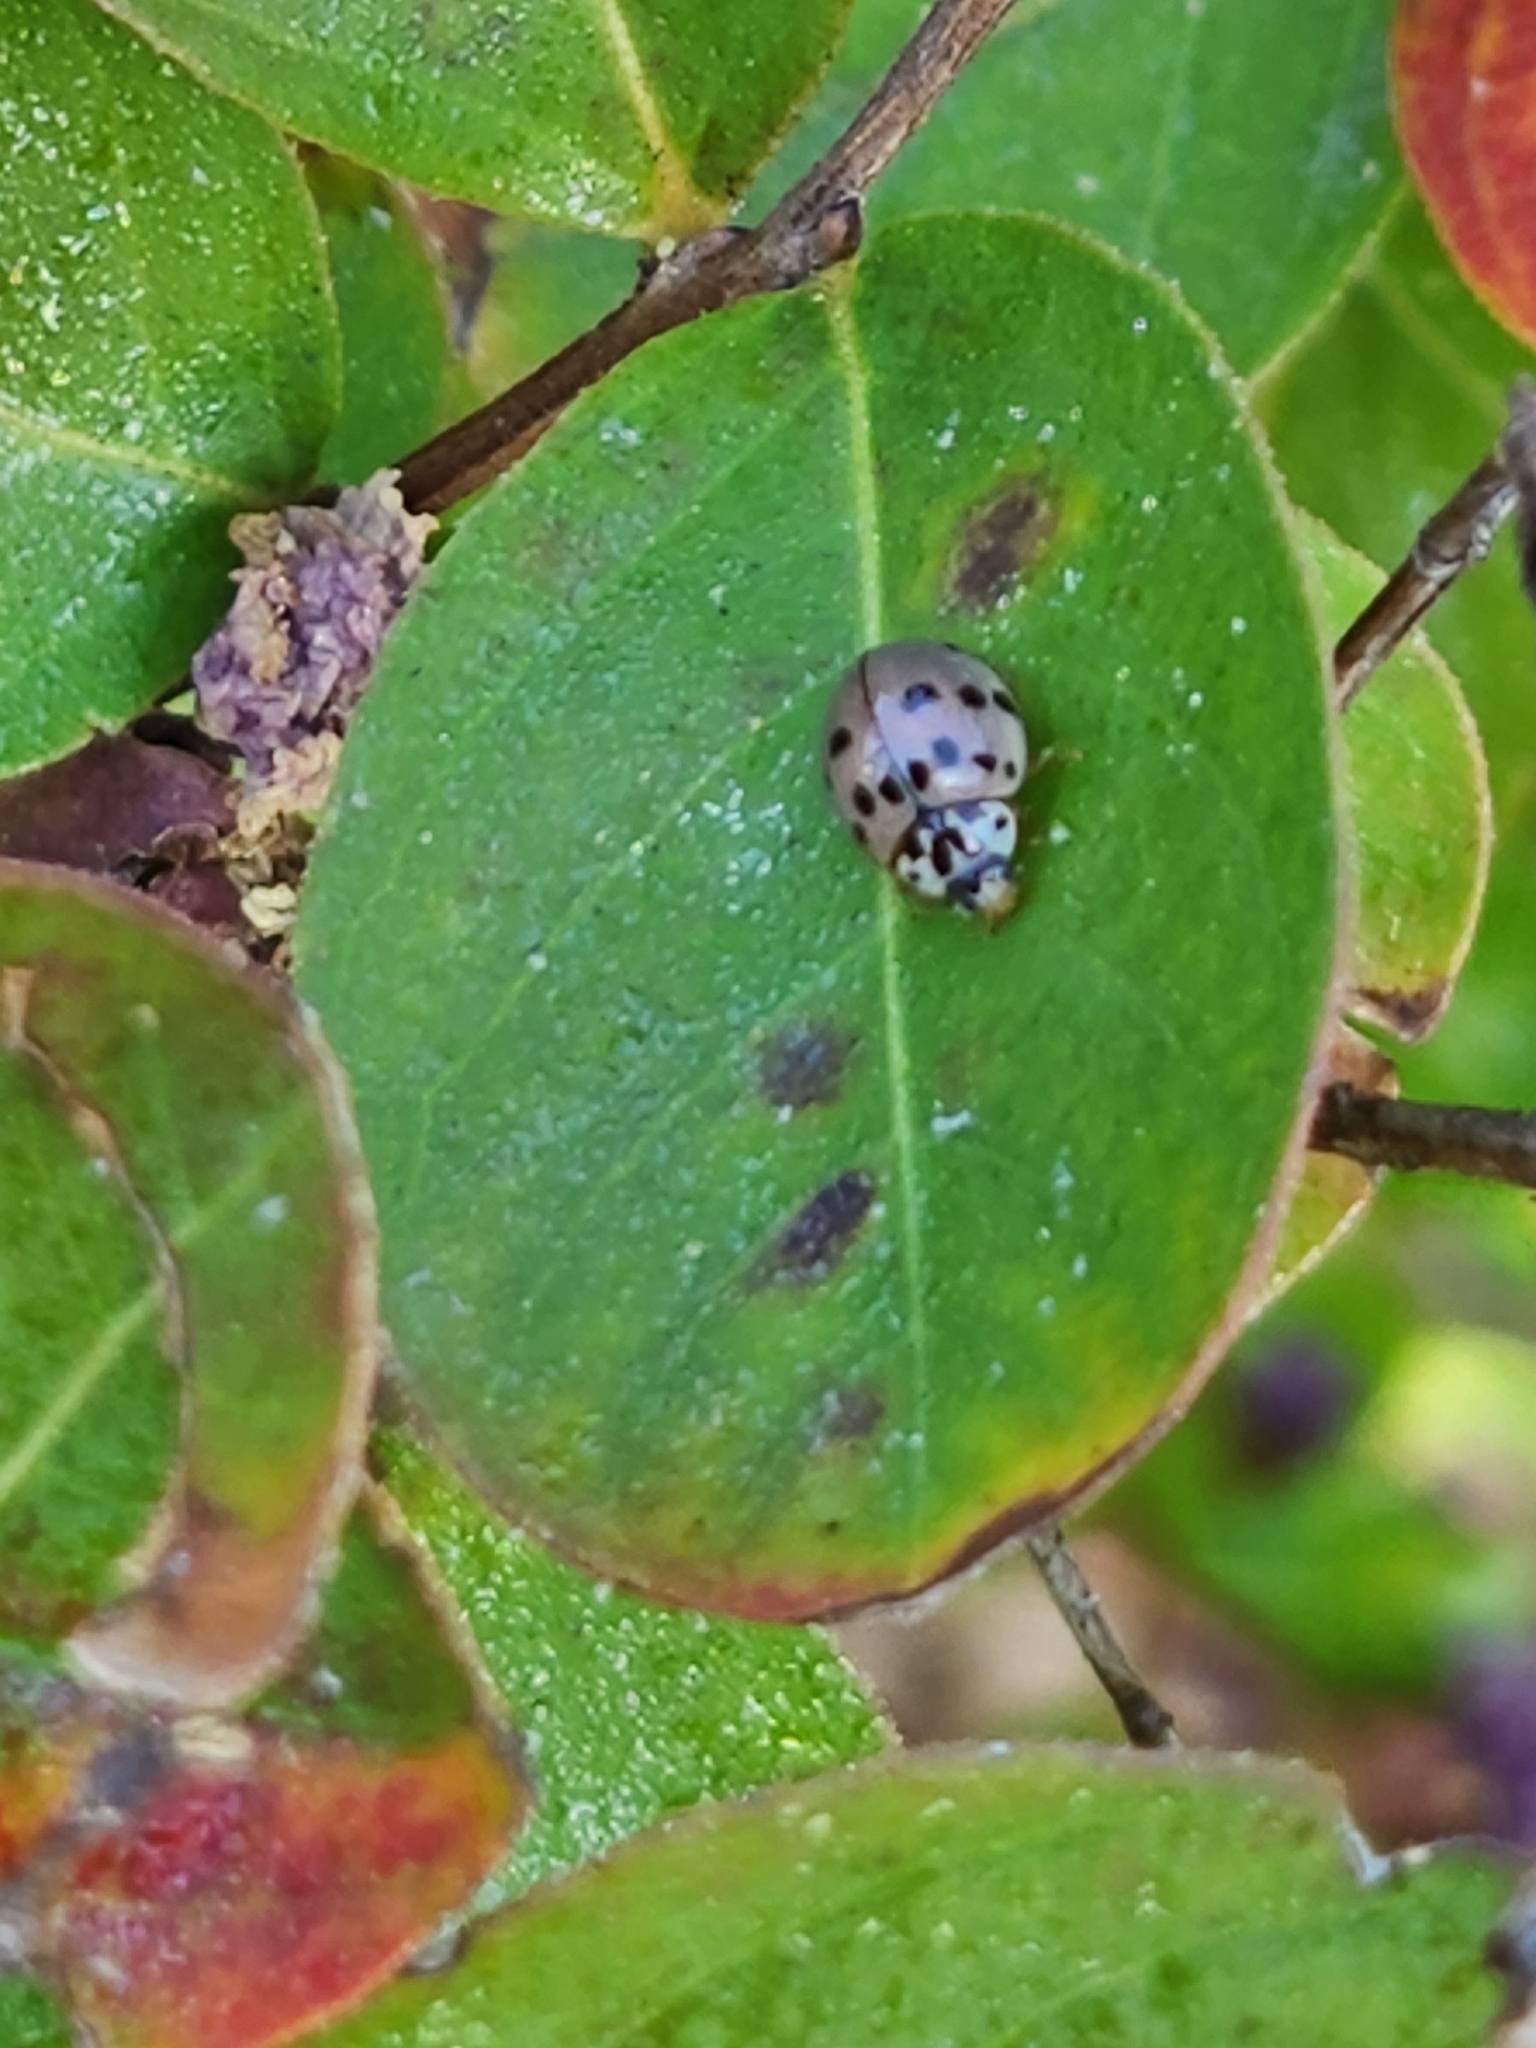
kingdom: Animalia
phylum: Arthropoda
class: Insecta
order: Coleoptera
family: Coccinellidae
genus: Olla
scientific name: Olla v-nigrum
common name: Ashy gray lady beetle
